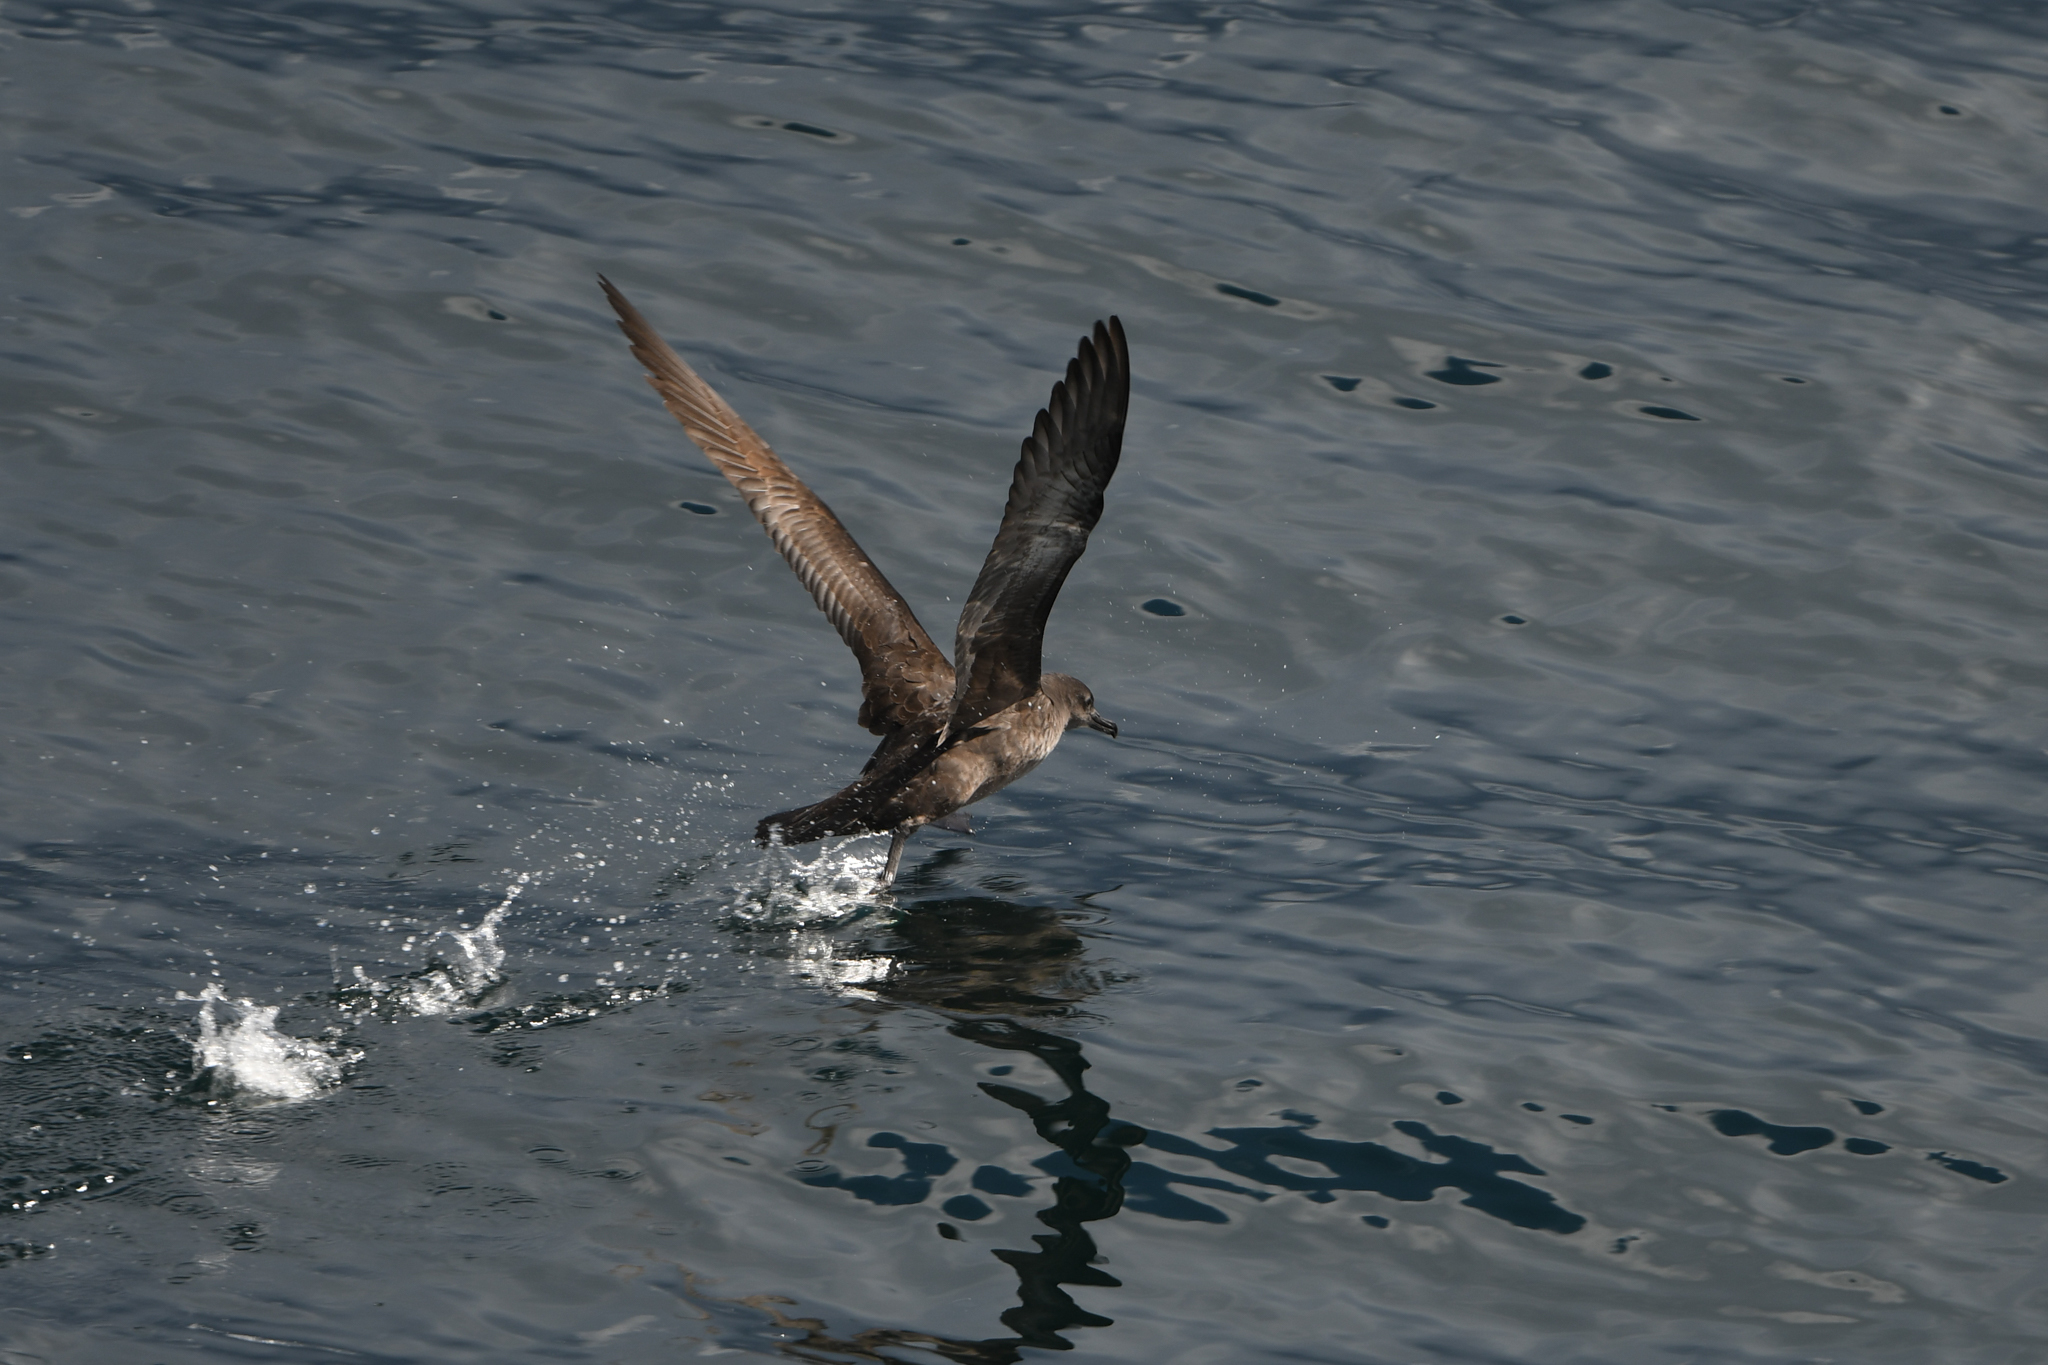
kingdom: Animalia
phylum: Chordata
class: Aves
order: Procellariiformes
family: Procellariidae
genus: Puffinus
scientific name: Puffinus griseus
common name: Sooty shearwater
